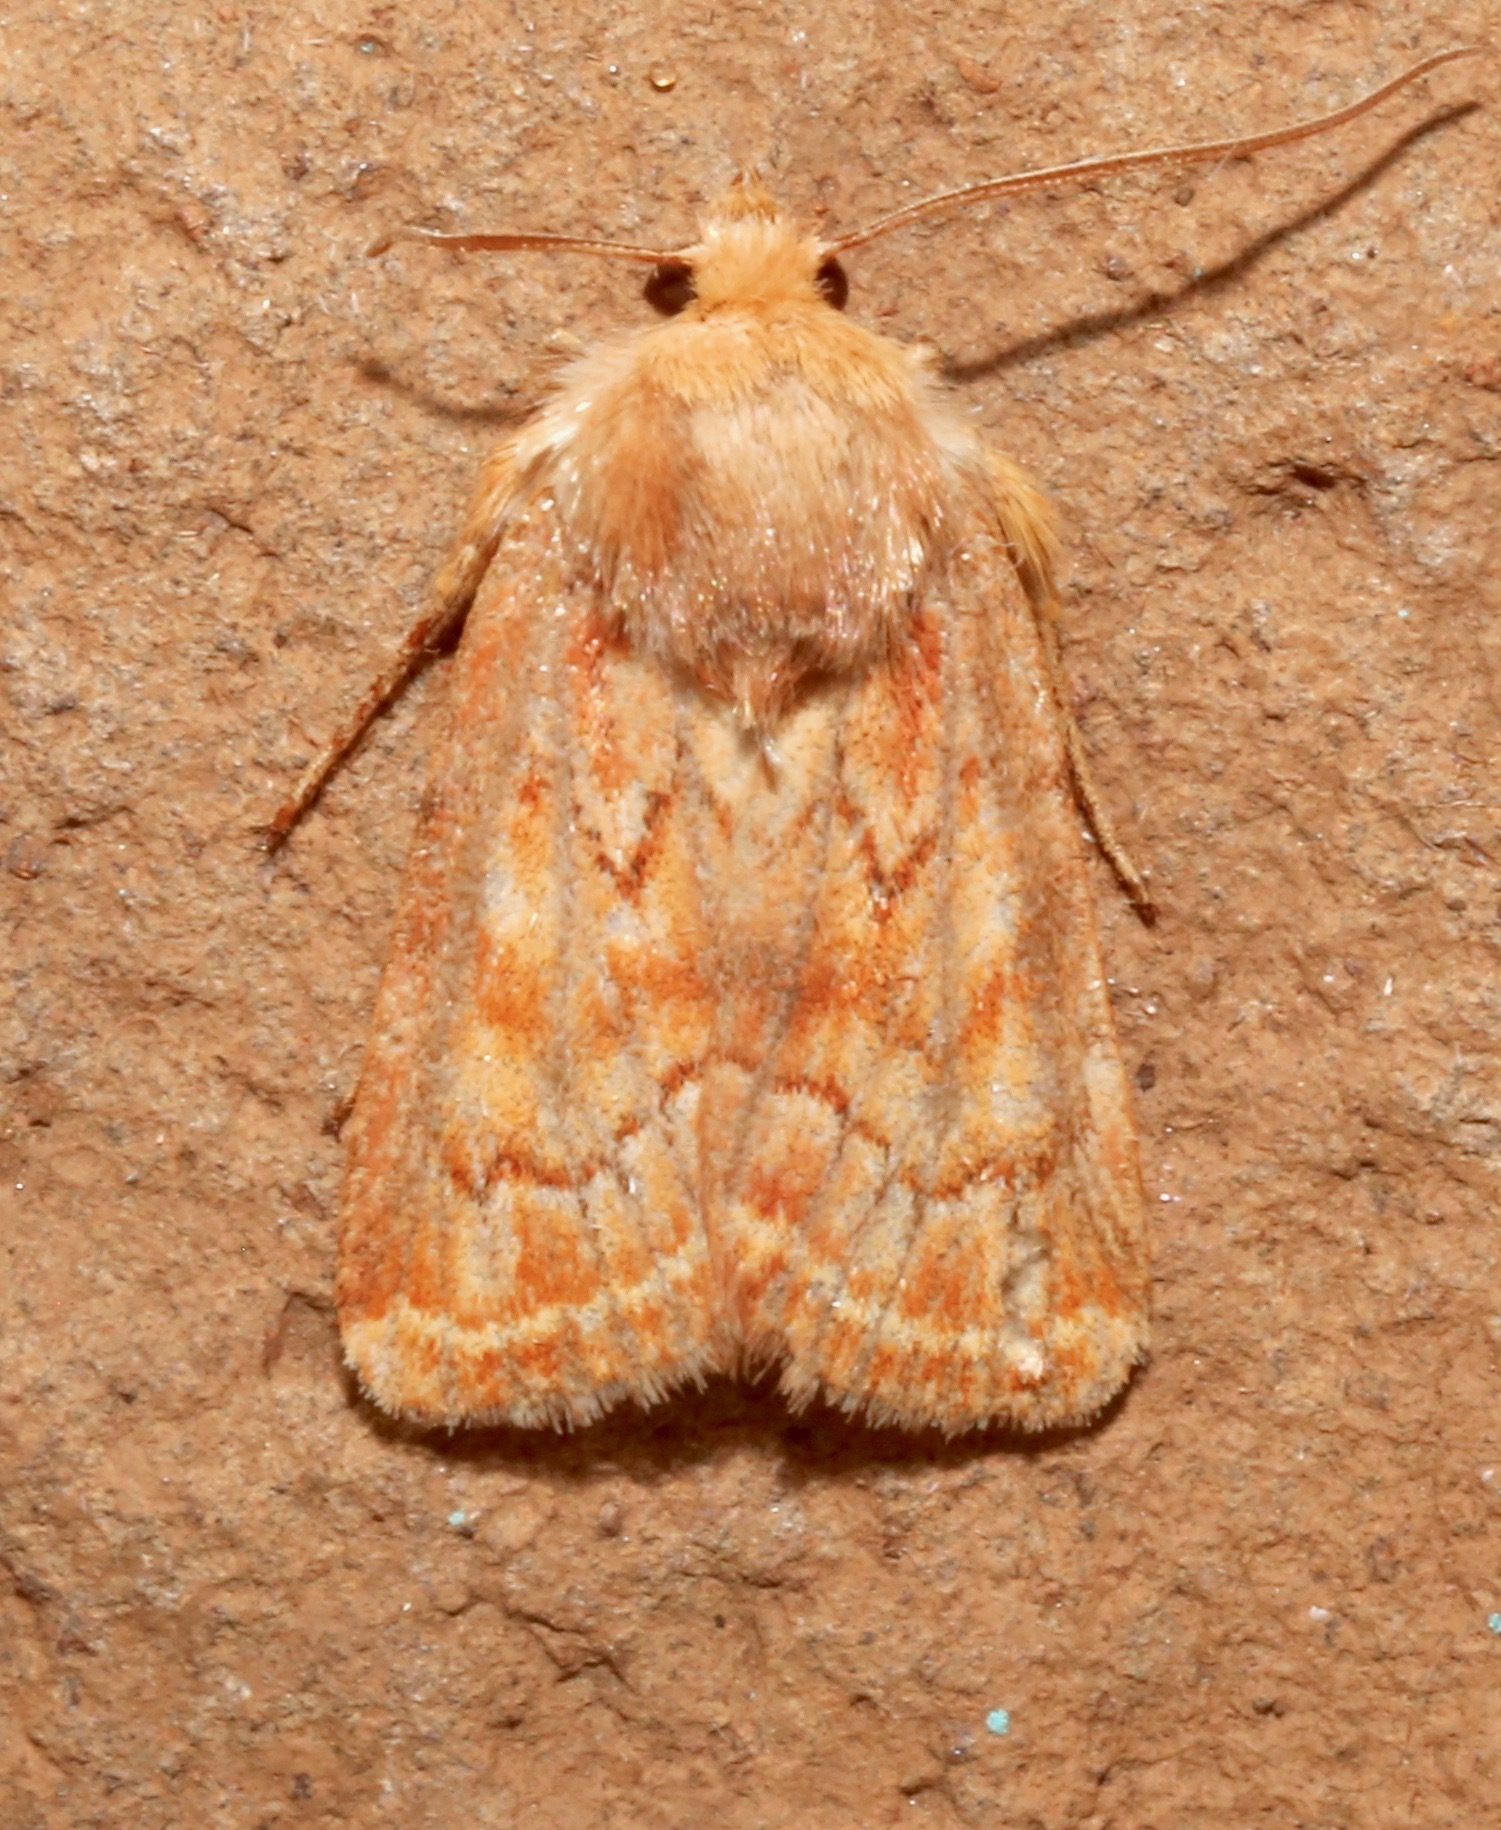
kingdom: Animalia
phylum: Arthropoda
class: Insecta
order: Lepidoptera
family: Noctuidae
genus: Homorthodes
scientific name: Homorthodes reliqua
